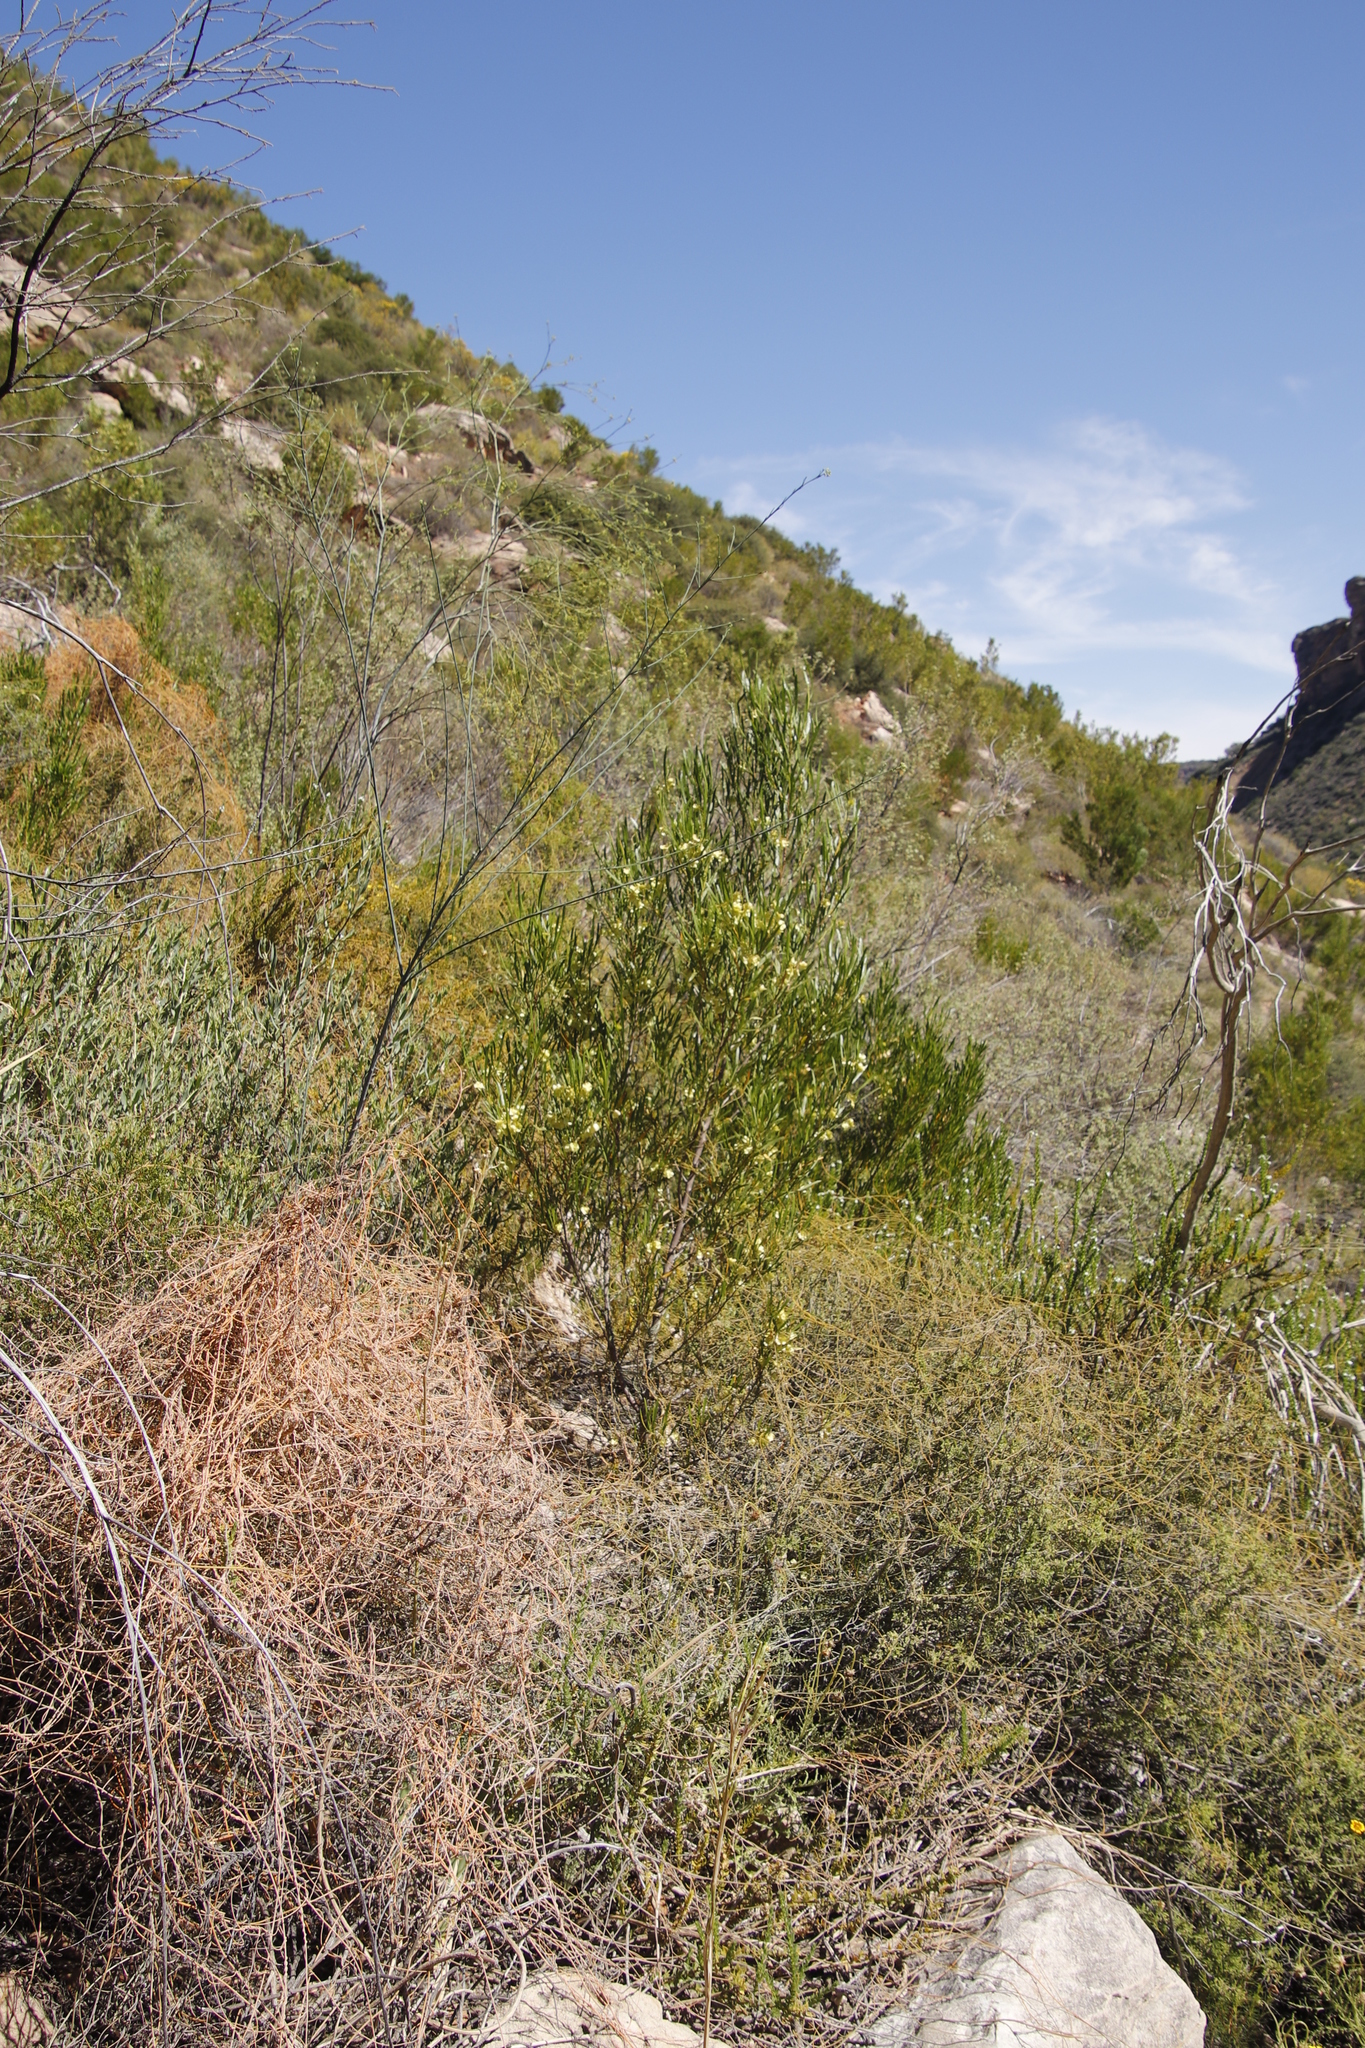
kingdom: Plantae
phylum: Tracheophyta
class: Magnoliopsida
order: Sapindales
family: Sapindaceae
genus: Dodonaea
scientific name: Dodonaea viscosa
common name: Hopbush
